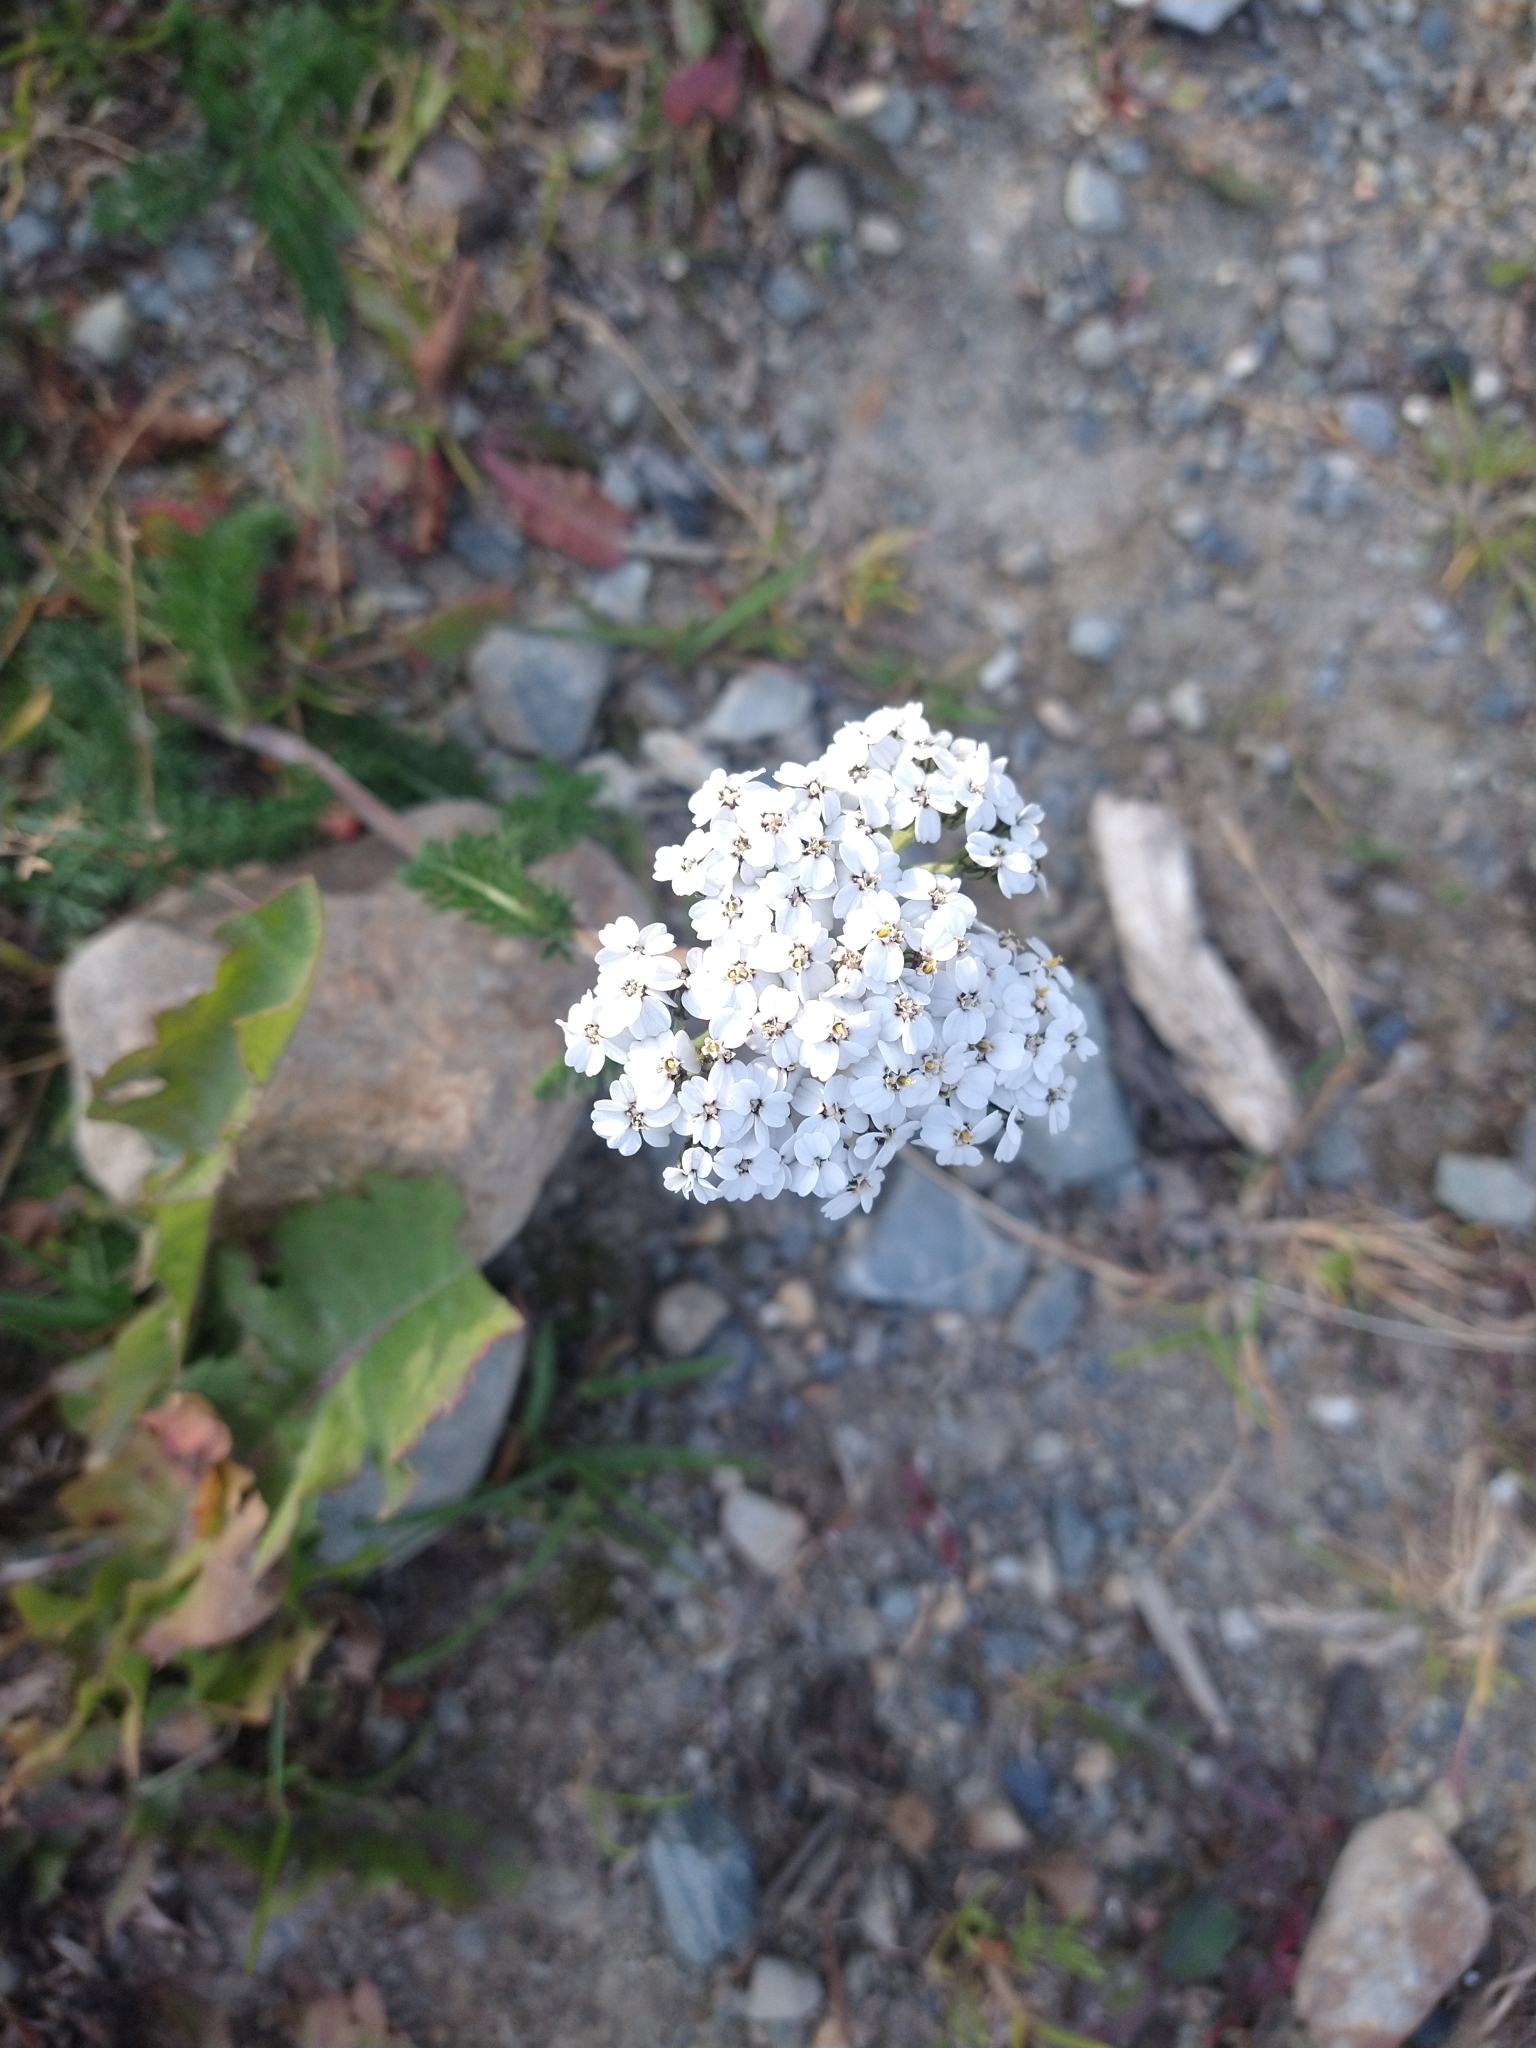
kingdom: Plantae
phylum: Tracheophyta
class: Magnoliopsida
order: Asterales
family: Asteraceae
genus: Achillea
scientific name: Achillea millefolium
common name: Yarrow
